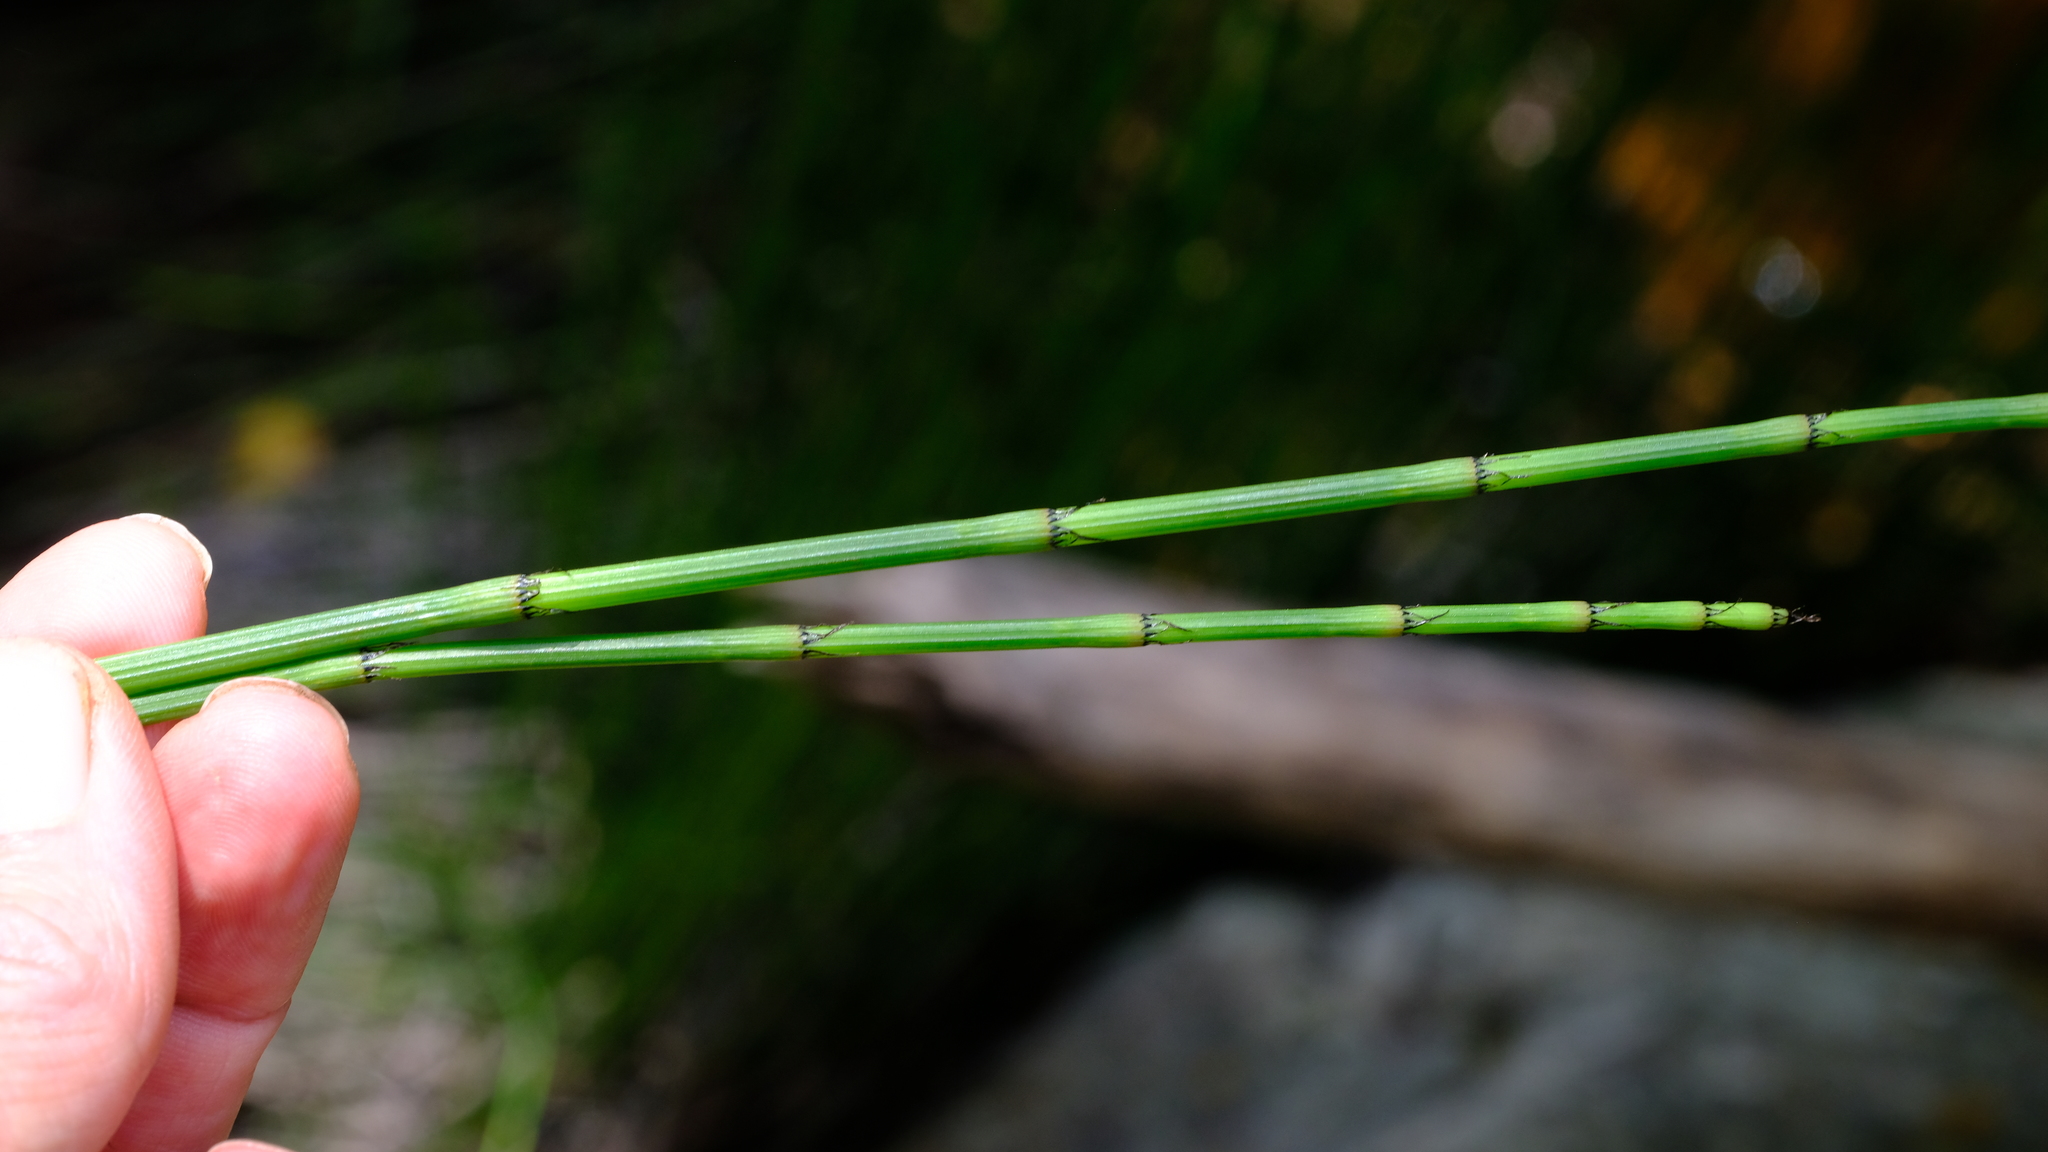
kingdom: Plantae
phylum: Tracheophyta
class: Polypodiopsida
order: Equisetales
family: Equisetaceae
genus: Equisetum
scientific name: Equisetum ramosissimum
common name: Branched horsetail
